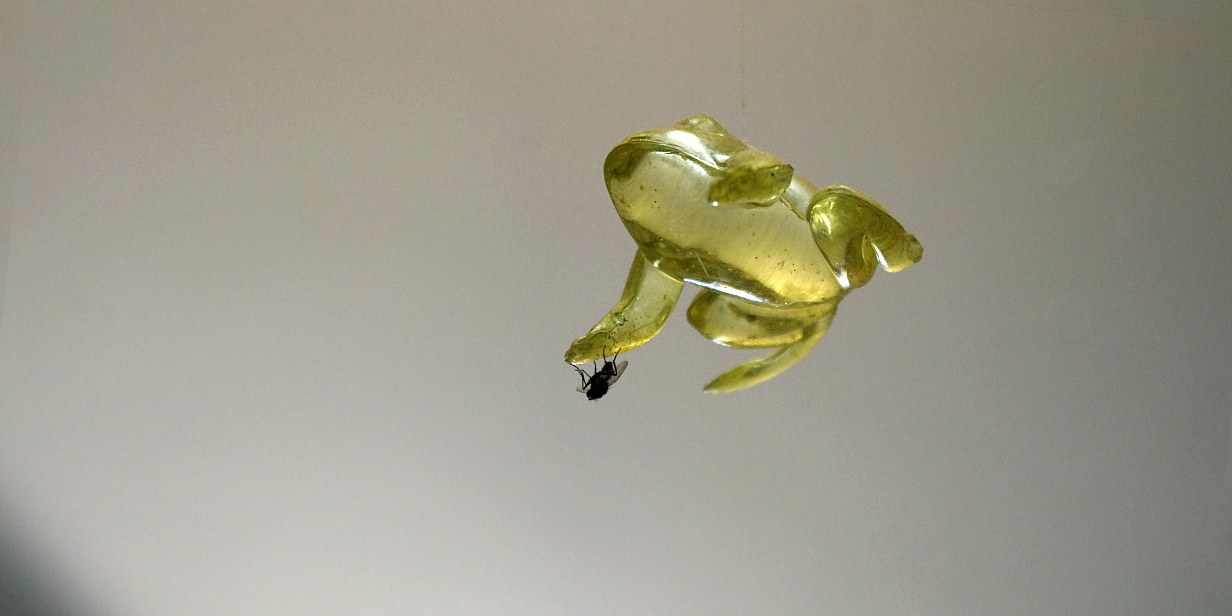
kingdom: Animalia
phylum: Arthropoda
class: Insecta
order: Diptera
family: Fanniidae
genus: Fannia
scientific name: Fannia canicularis
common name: Little house fly
